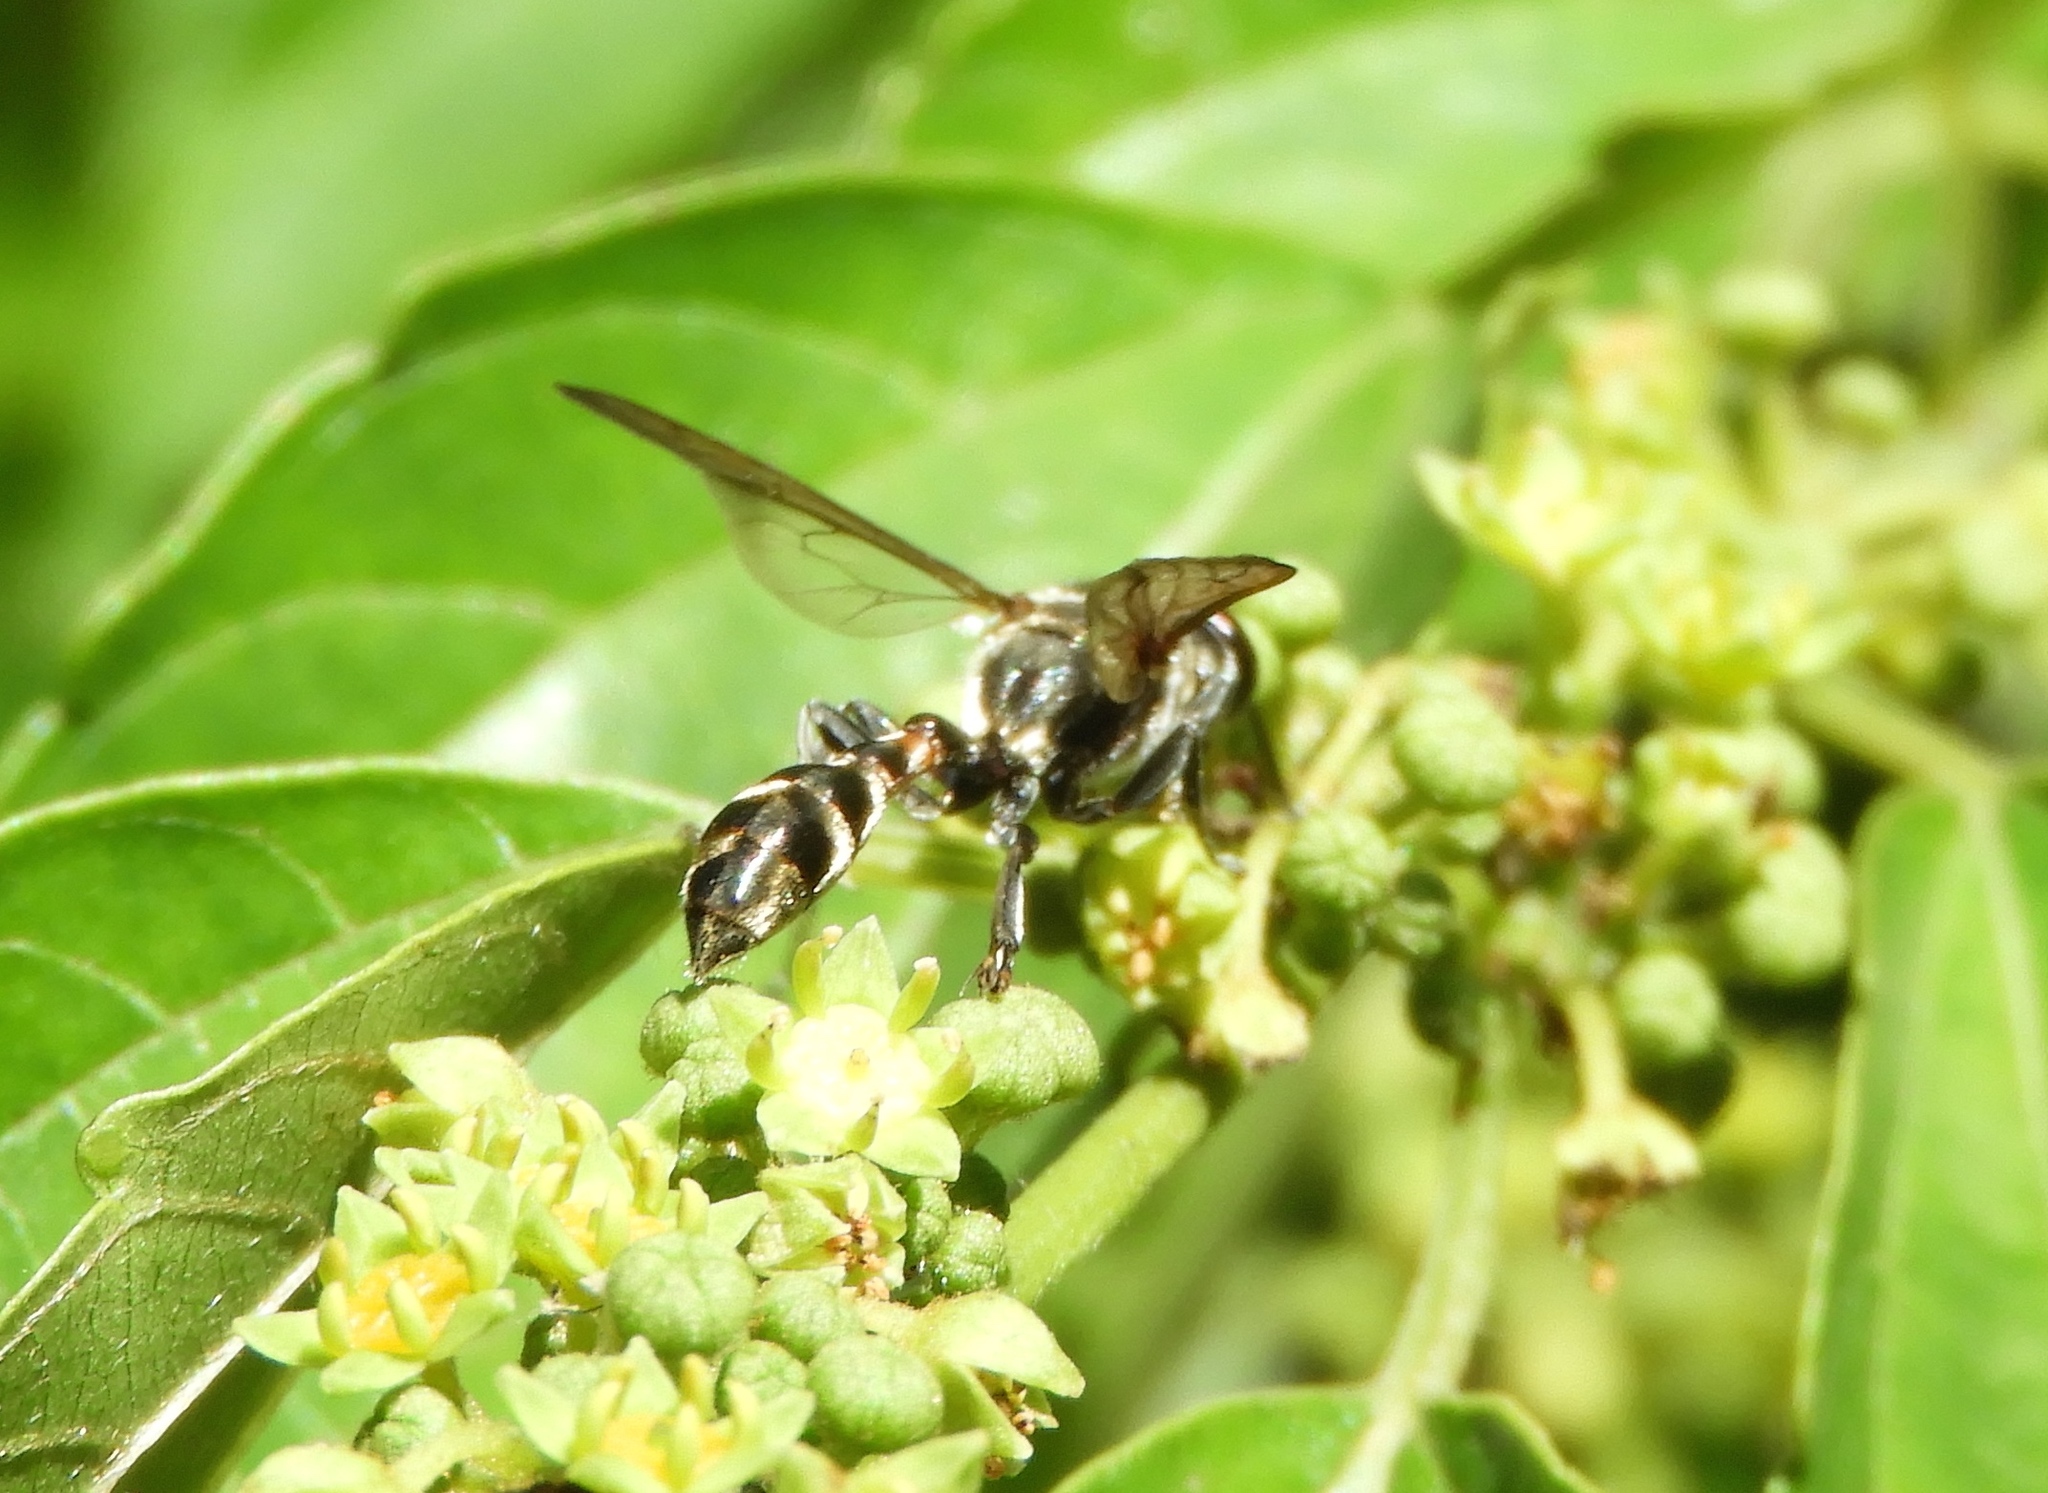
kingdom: Animalia
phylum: Arthropoda
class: Insecta
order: Hymenoptera
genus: Trypargilum
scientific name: Trypargilum
